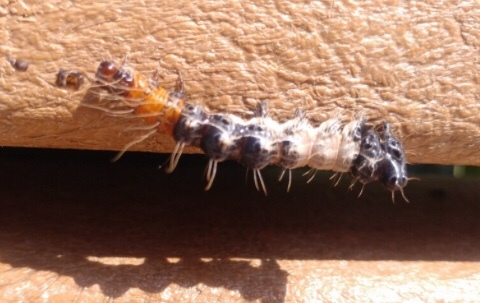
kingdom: Animalia
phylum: Arthropoda
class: Insecta
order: Lepidoptera
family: Noctuidae
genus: Harrisimemna
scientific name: Harrisimemna trisignata
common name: Harris threespot
